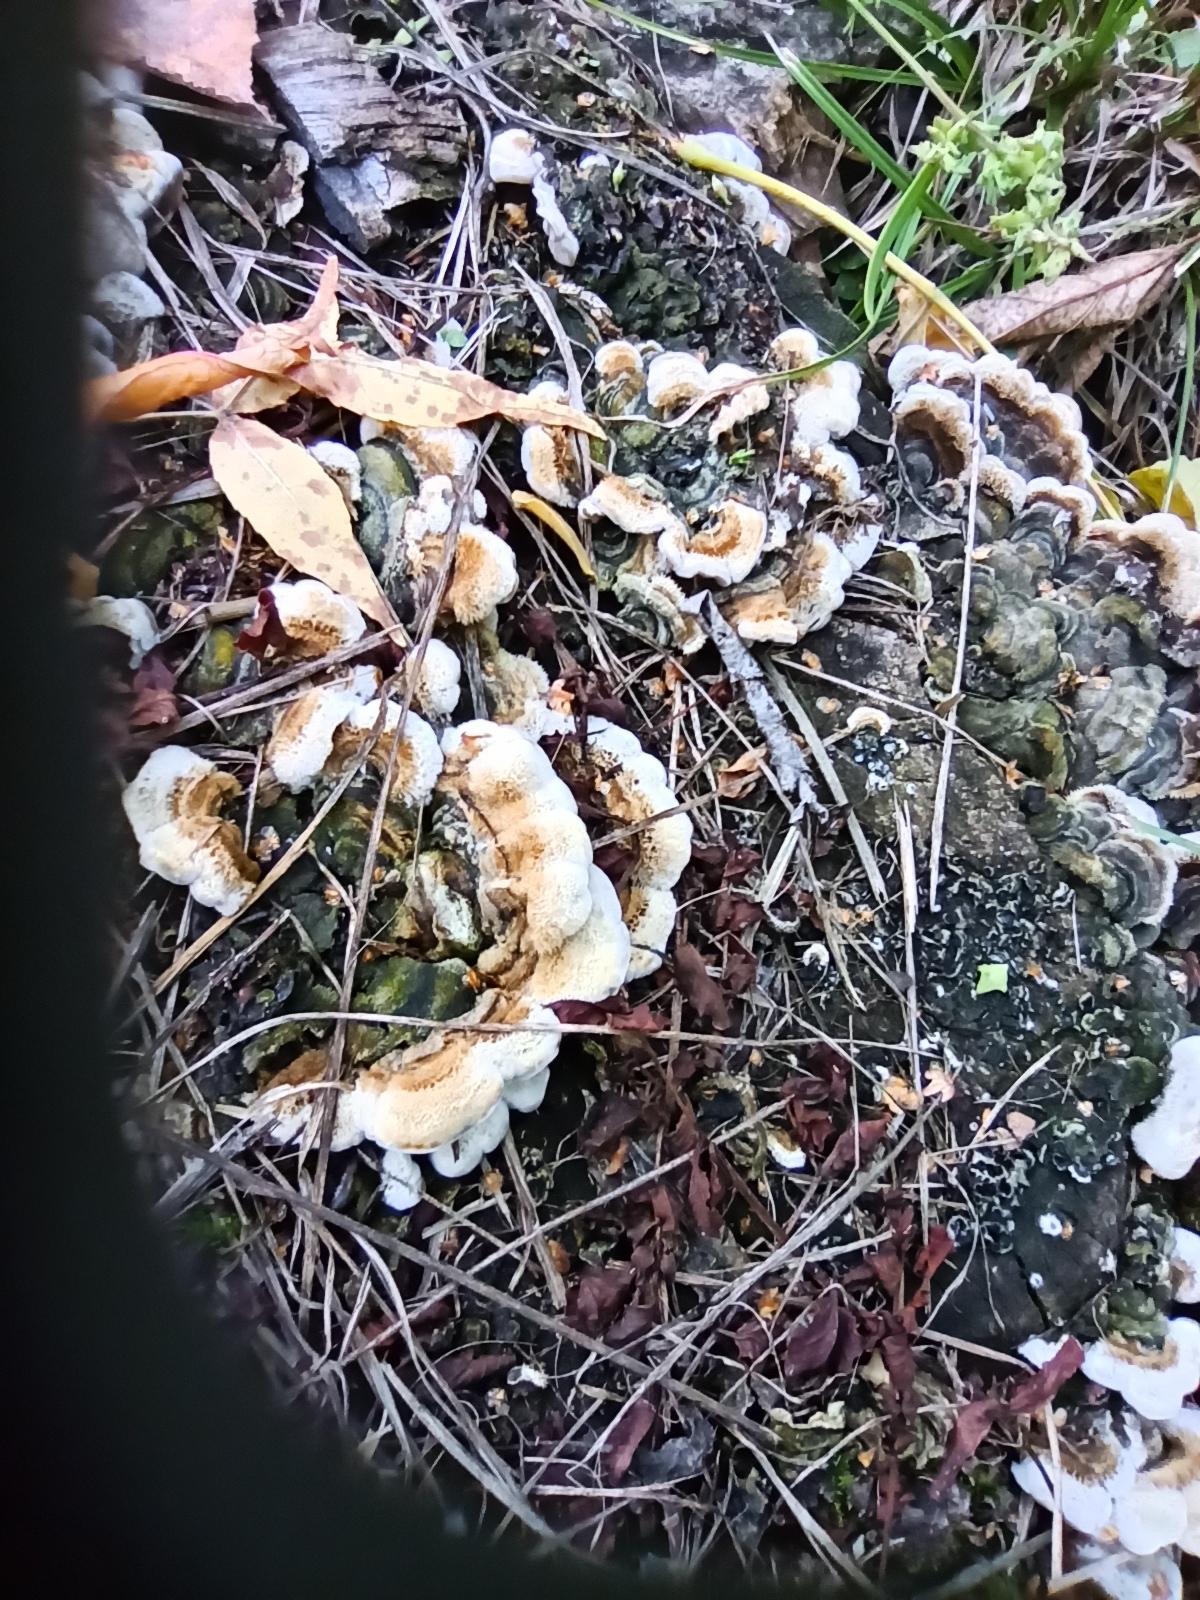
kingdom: Fungi
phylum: Basidiomycota
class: Agaricomycetes
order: Auriculariales
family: Auriculariaceae
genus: Auricularia
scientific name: Auricularia mesenterica
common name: Tripe fungus
